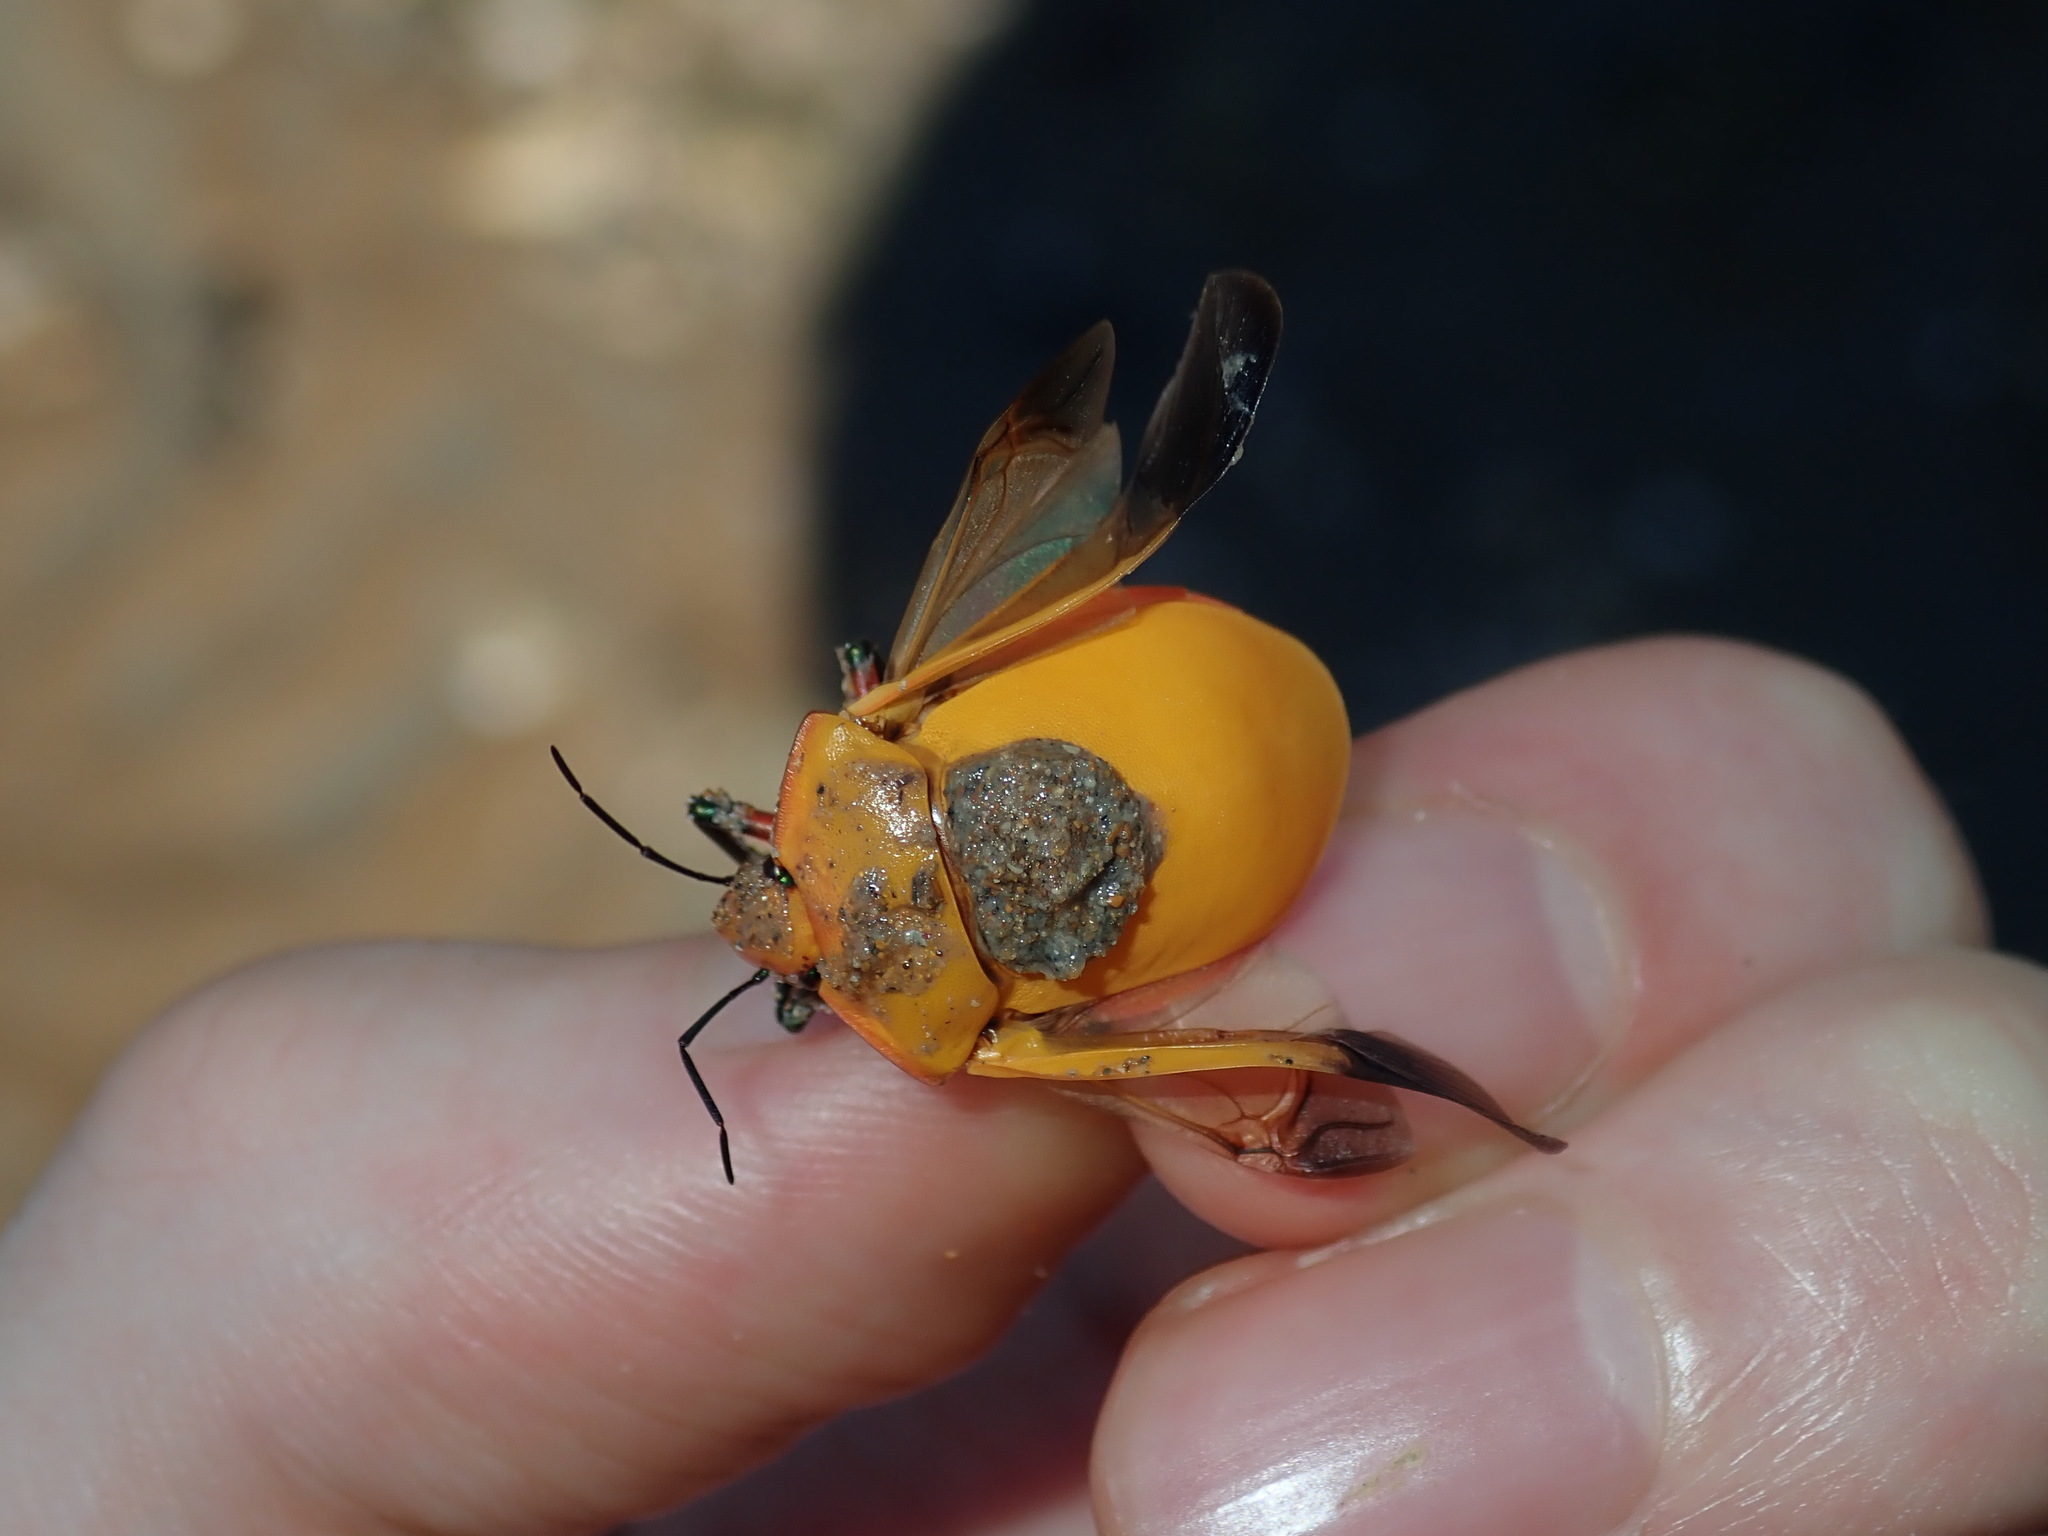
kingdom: Animalia
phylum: Arthropoda
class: Insecta
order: Hemiptera
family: Scutelleridae
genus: Tectocoris
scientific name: Tectocoris diophthalmus
